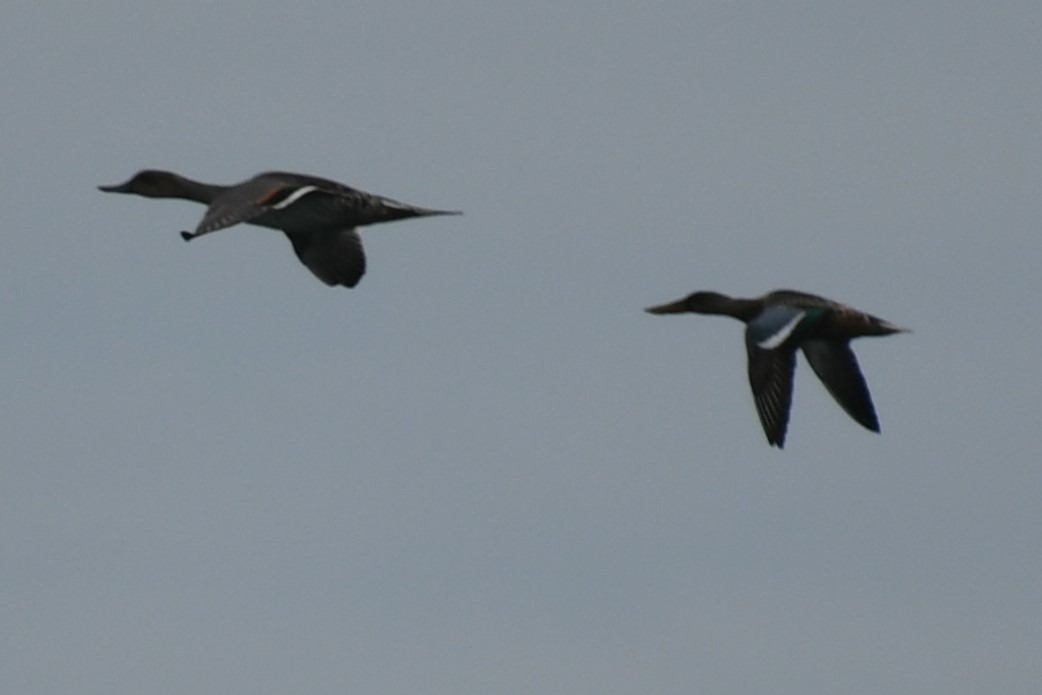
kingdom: Animalia
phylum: Chordata
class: Aves
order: Anseriformes
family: Anatidae
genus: Anas
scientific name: Anas acuta
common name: Northern pintail
